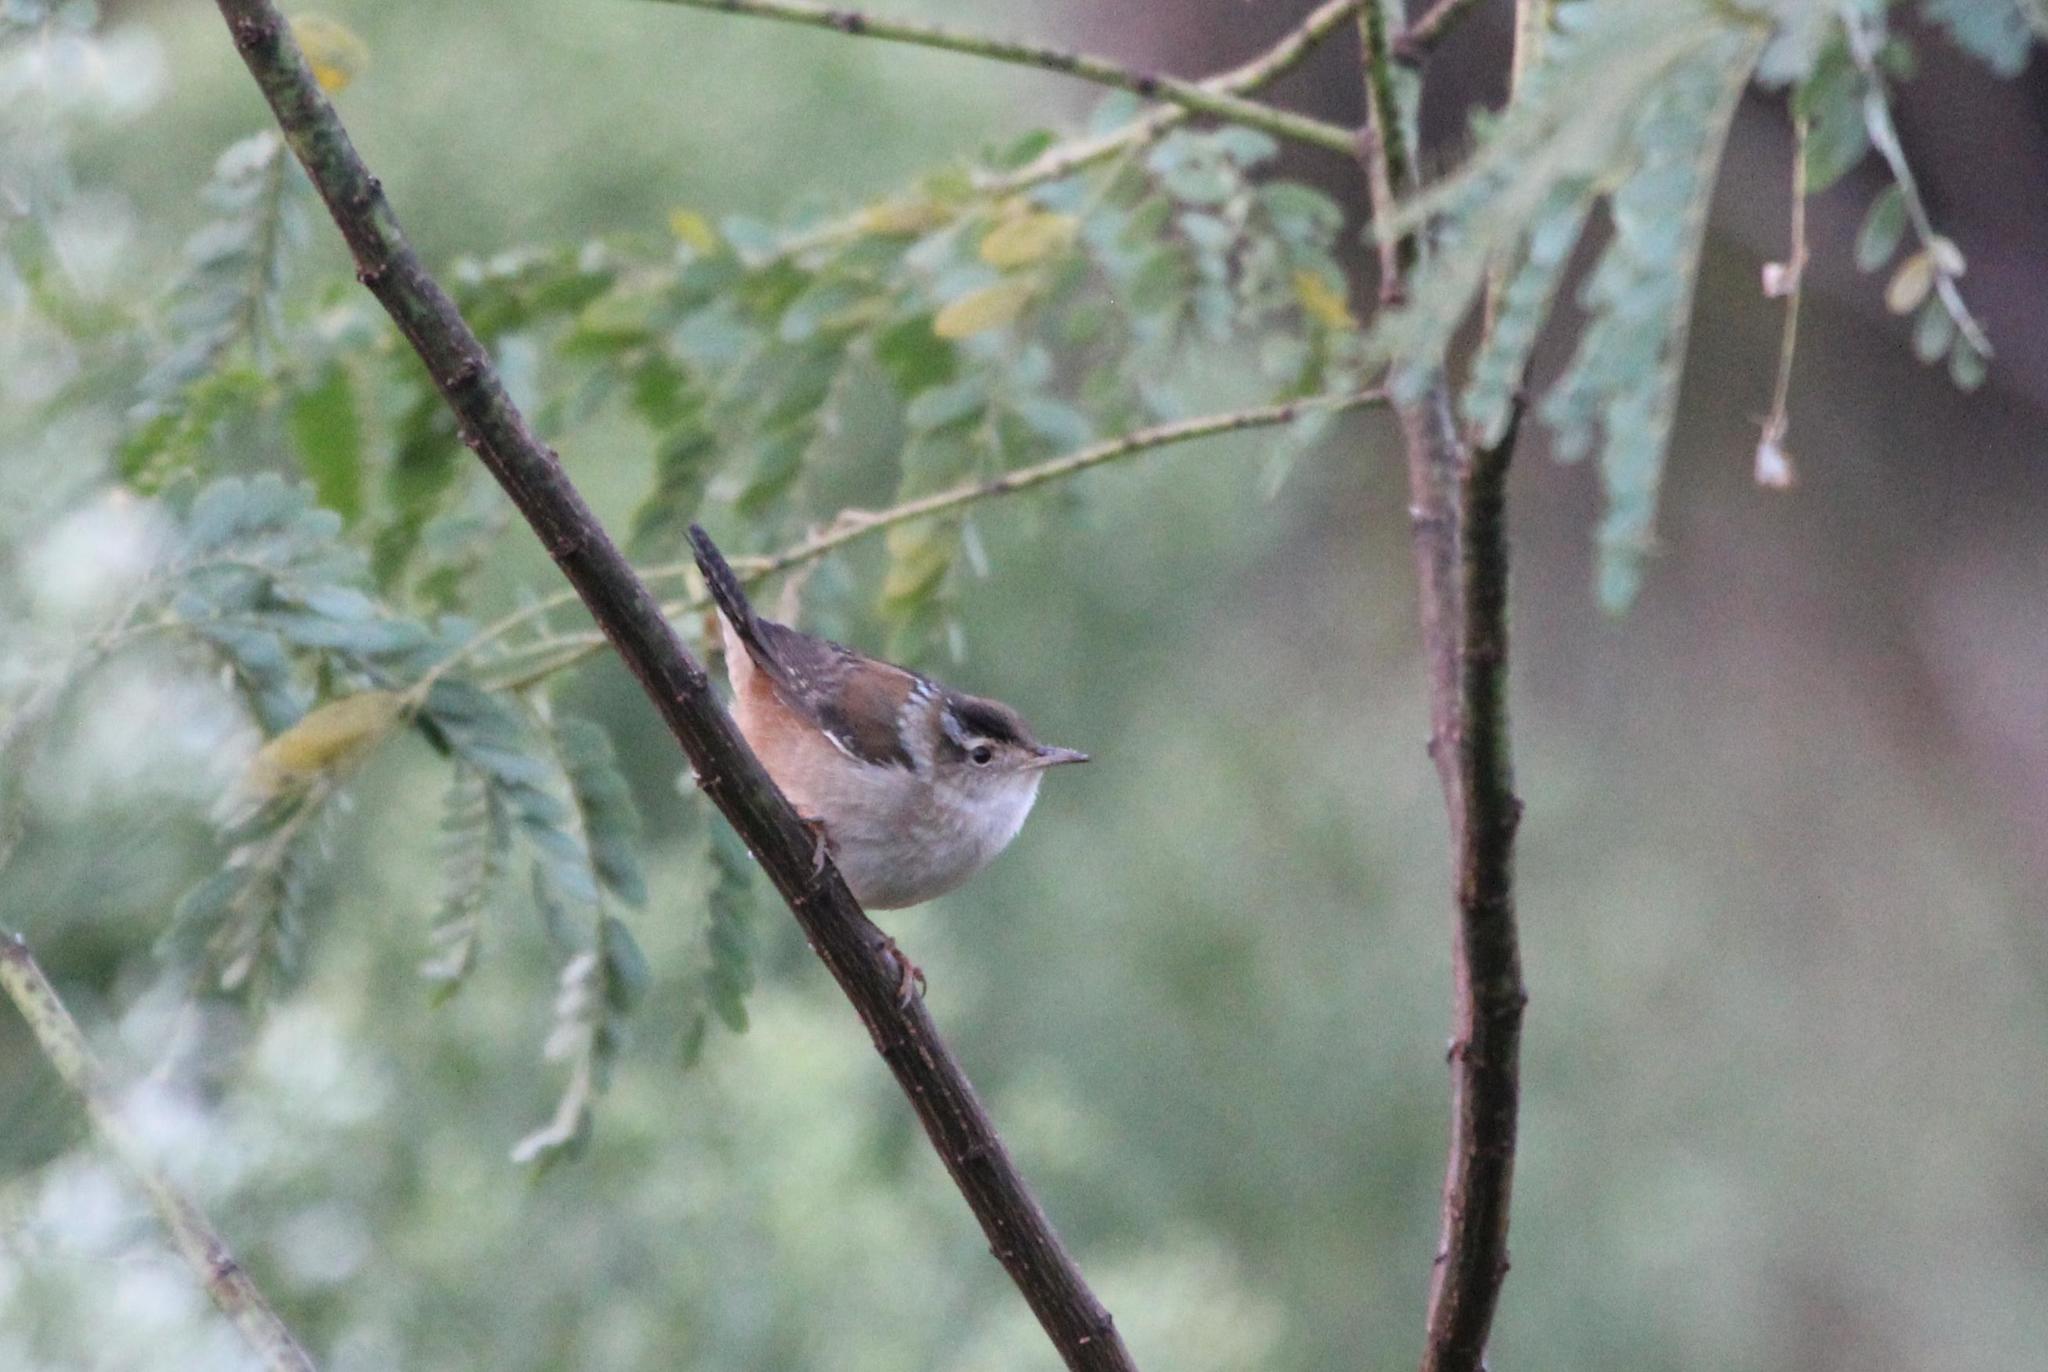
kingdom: Animalia
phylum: Chordata
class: Aves
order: Passeriformes
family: Troglodytidae
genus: Cistothorus
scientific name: Cistothorus palustris
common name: Marsh wren
